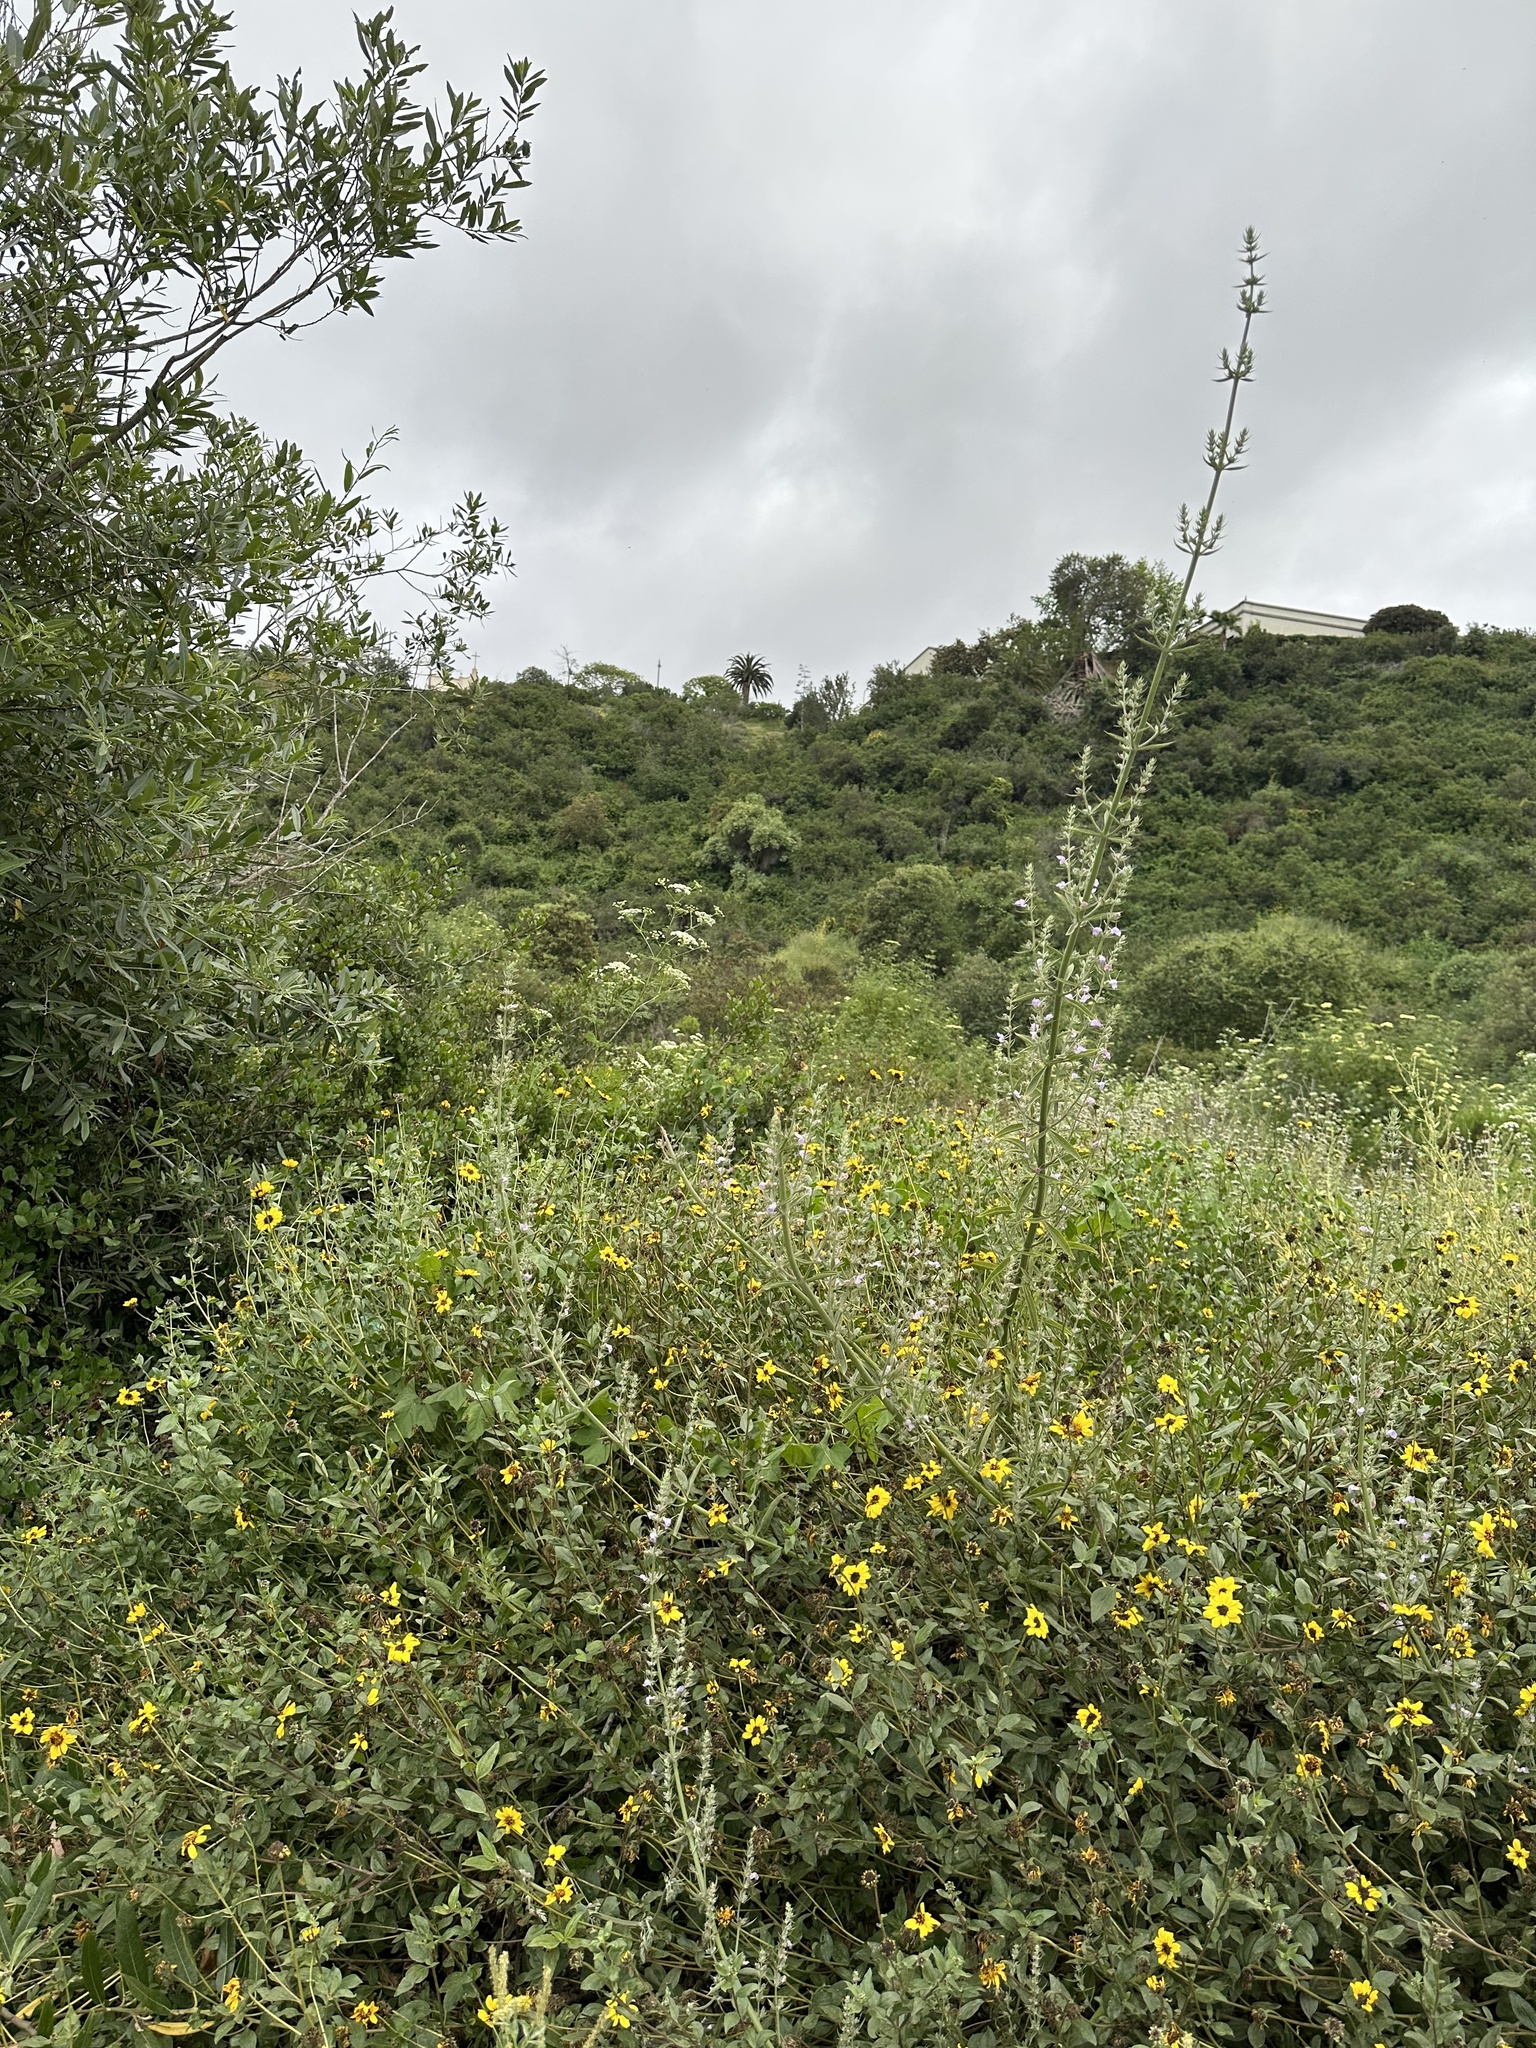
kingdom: Plantae
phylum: Tracheophyta
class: Magnoliopsida
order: Lamiales
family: Lamiaceae
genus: Salvia
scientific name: Salvia apiana
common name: White sage
